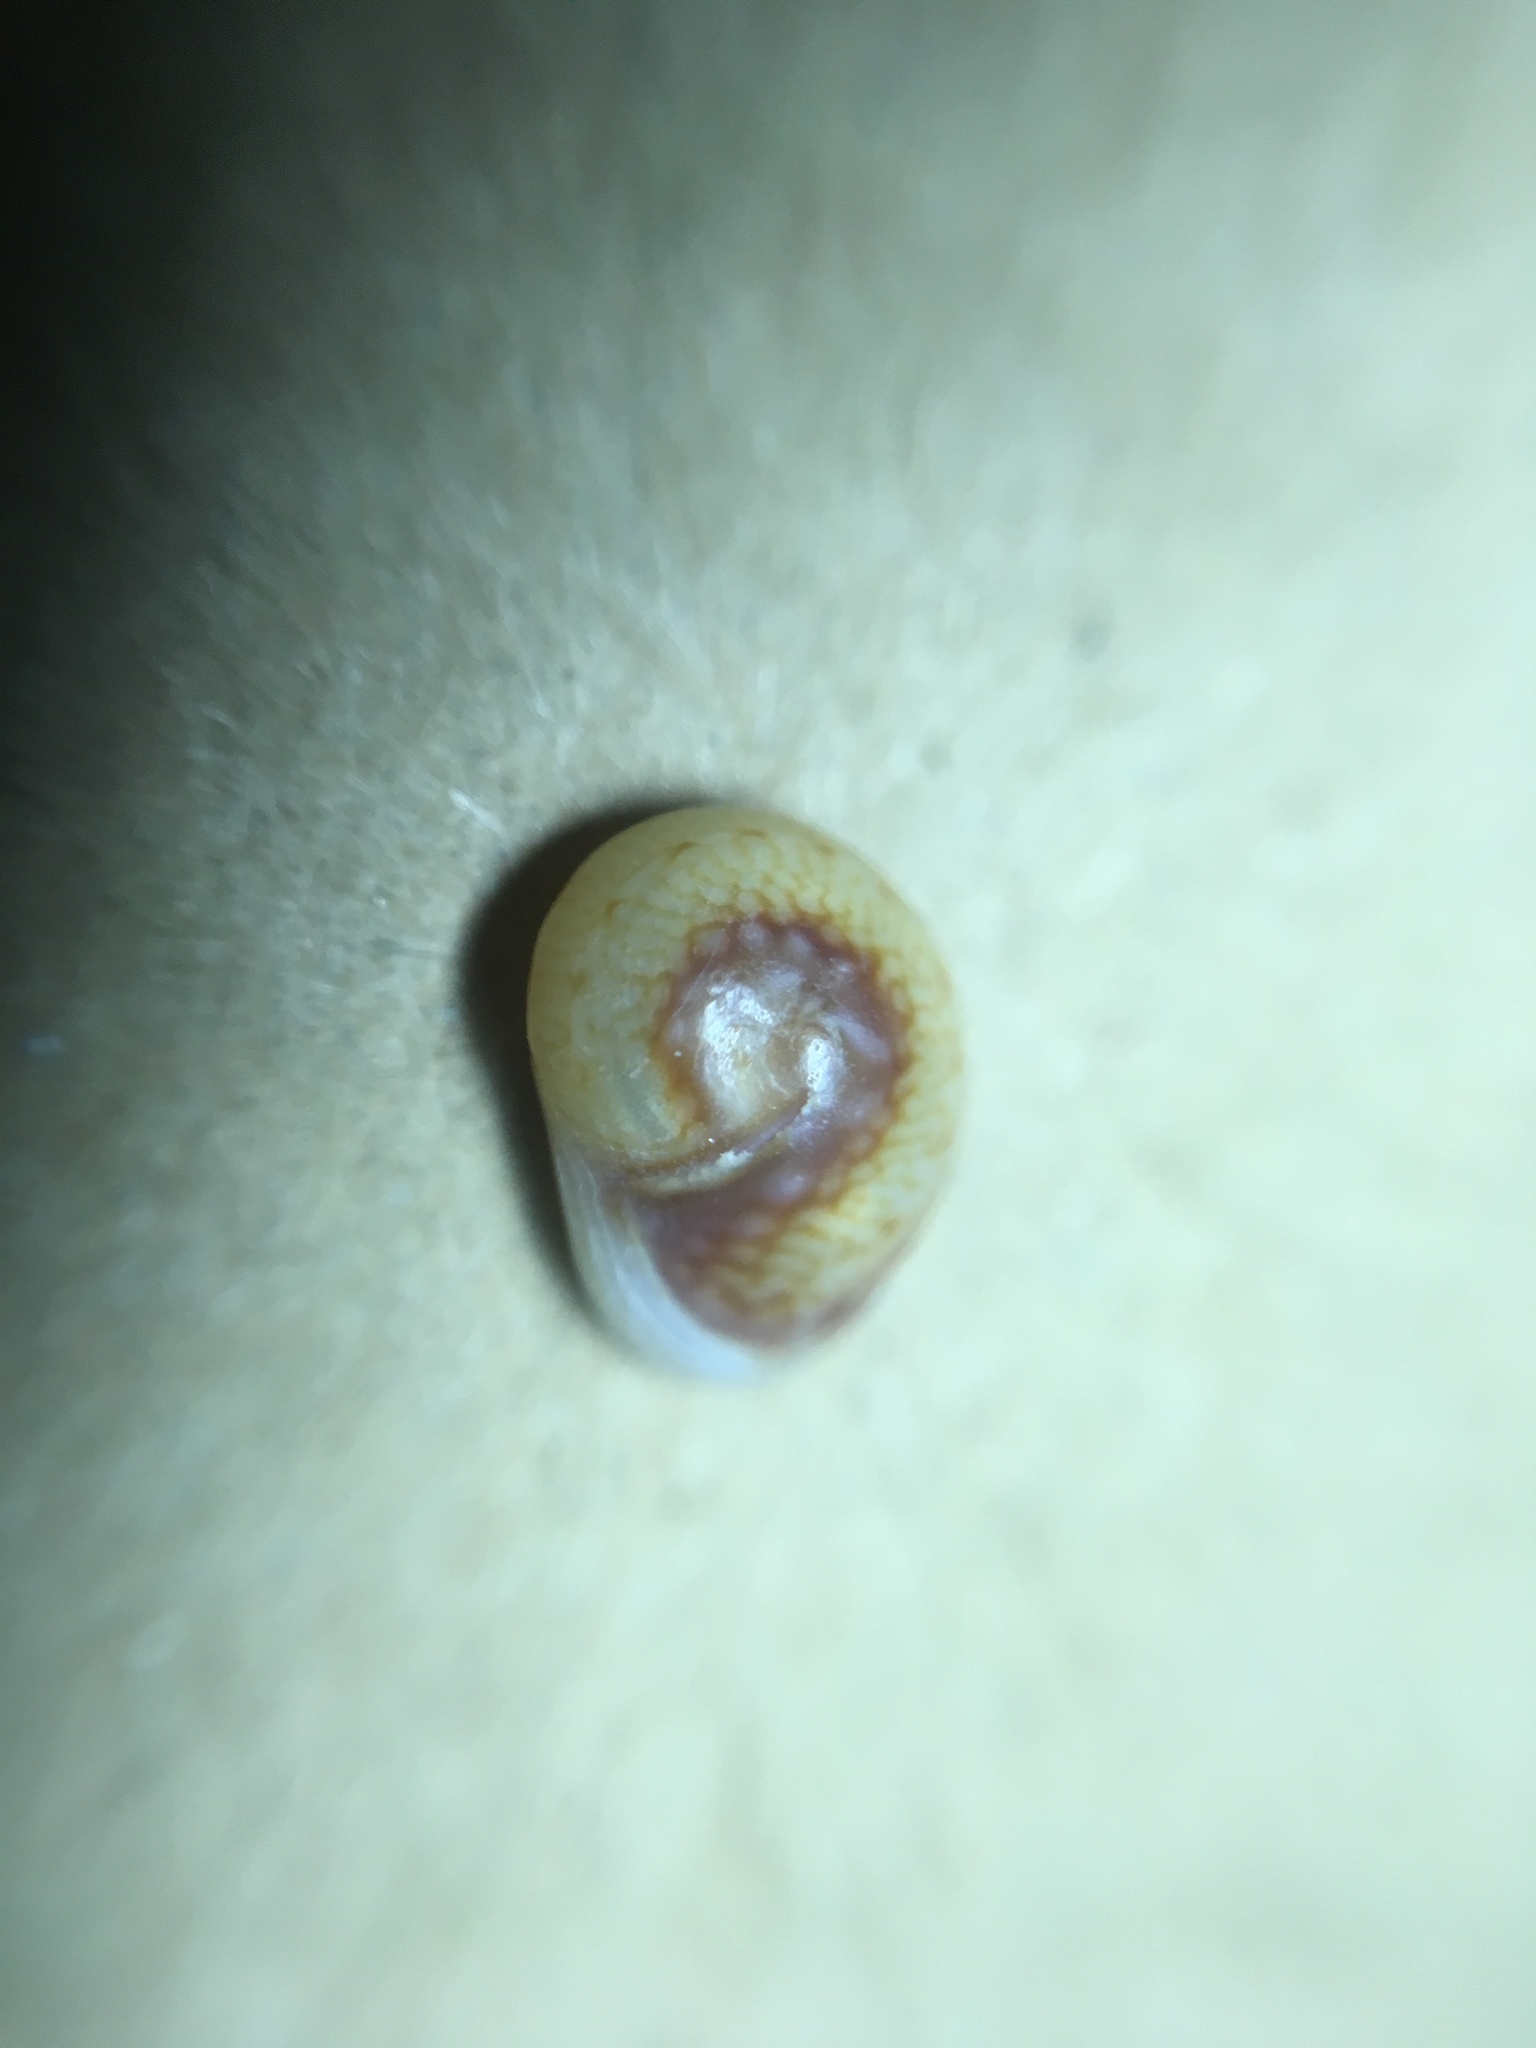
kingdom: Animalia
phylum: Mollusca
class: Gastropoda
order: Neogastropoda
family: Nassariidae
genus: Tritia
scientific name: Tritia neritea
